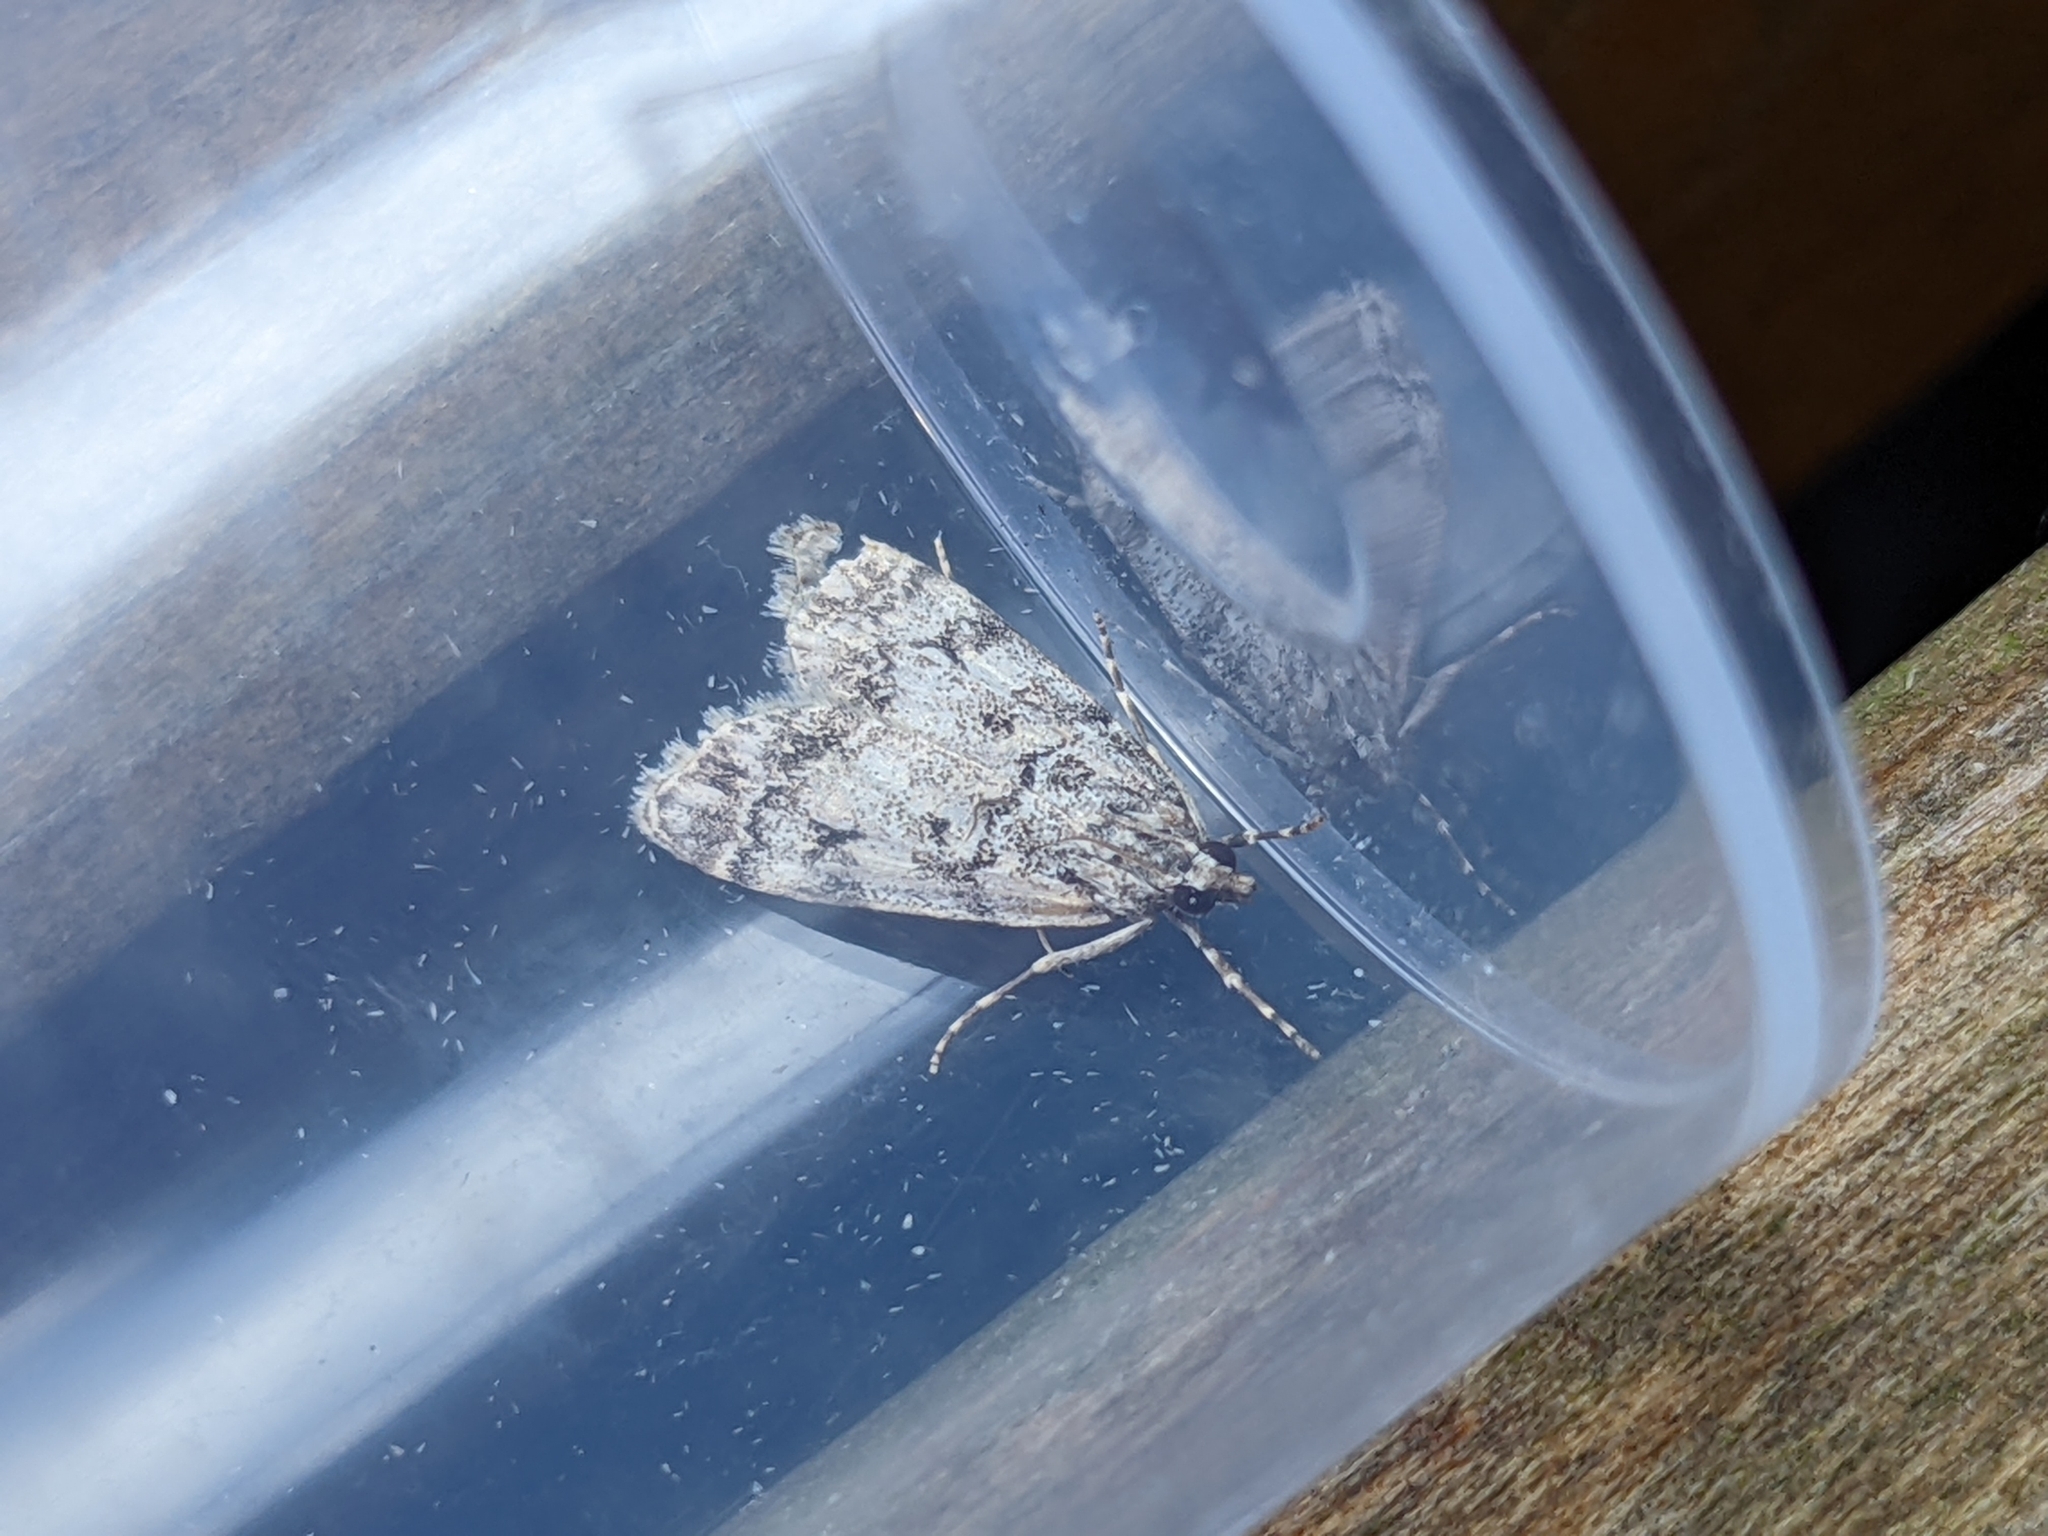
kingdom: Animalia
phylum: Arthropoda
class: Insecta
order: Lepidoptera
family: Crambidae
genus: Eudonia
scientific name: Eudonia lacustrata
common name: Little grey
